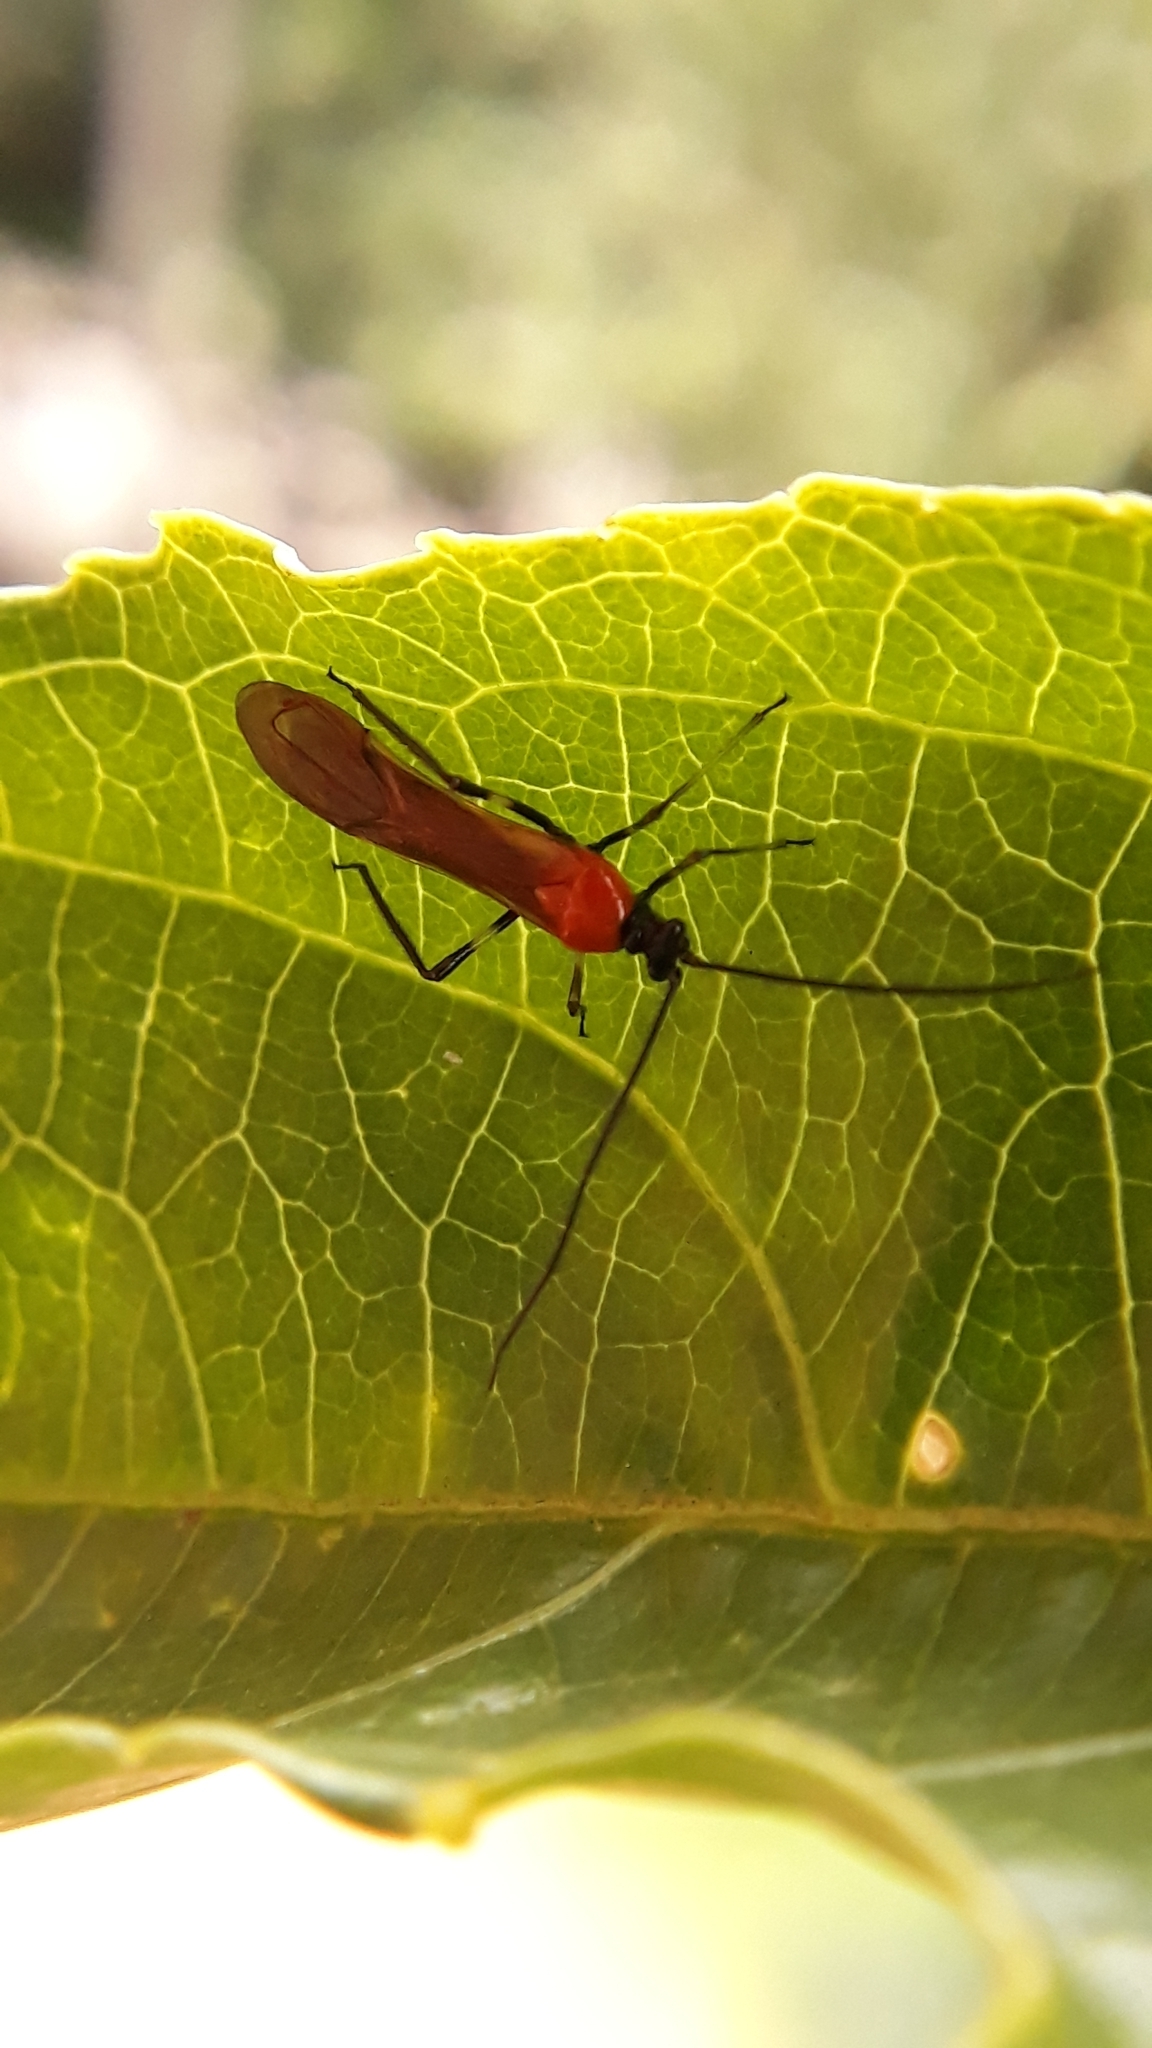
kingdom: Animalia
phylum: Arthropoda
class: Insecta
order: Hemiptera
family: Miridae
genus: Monalonion
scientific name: Monalonion velezangeli
